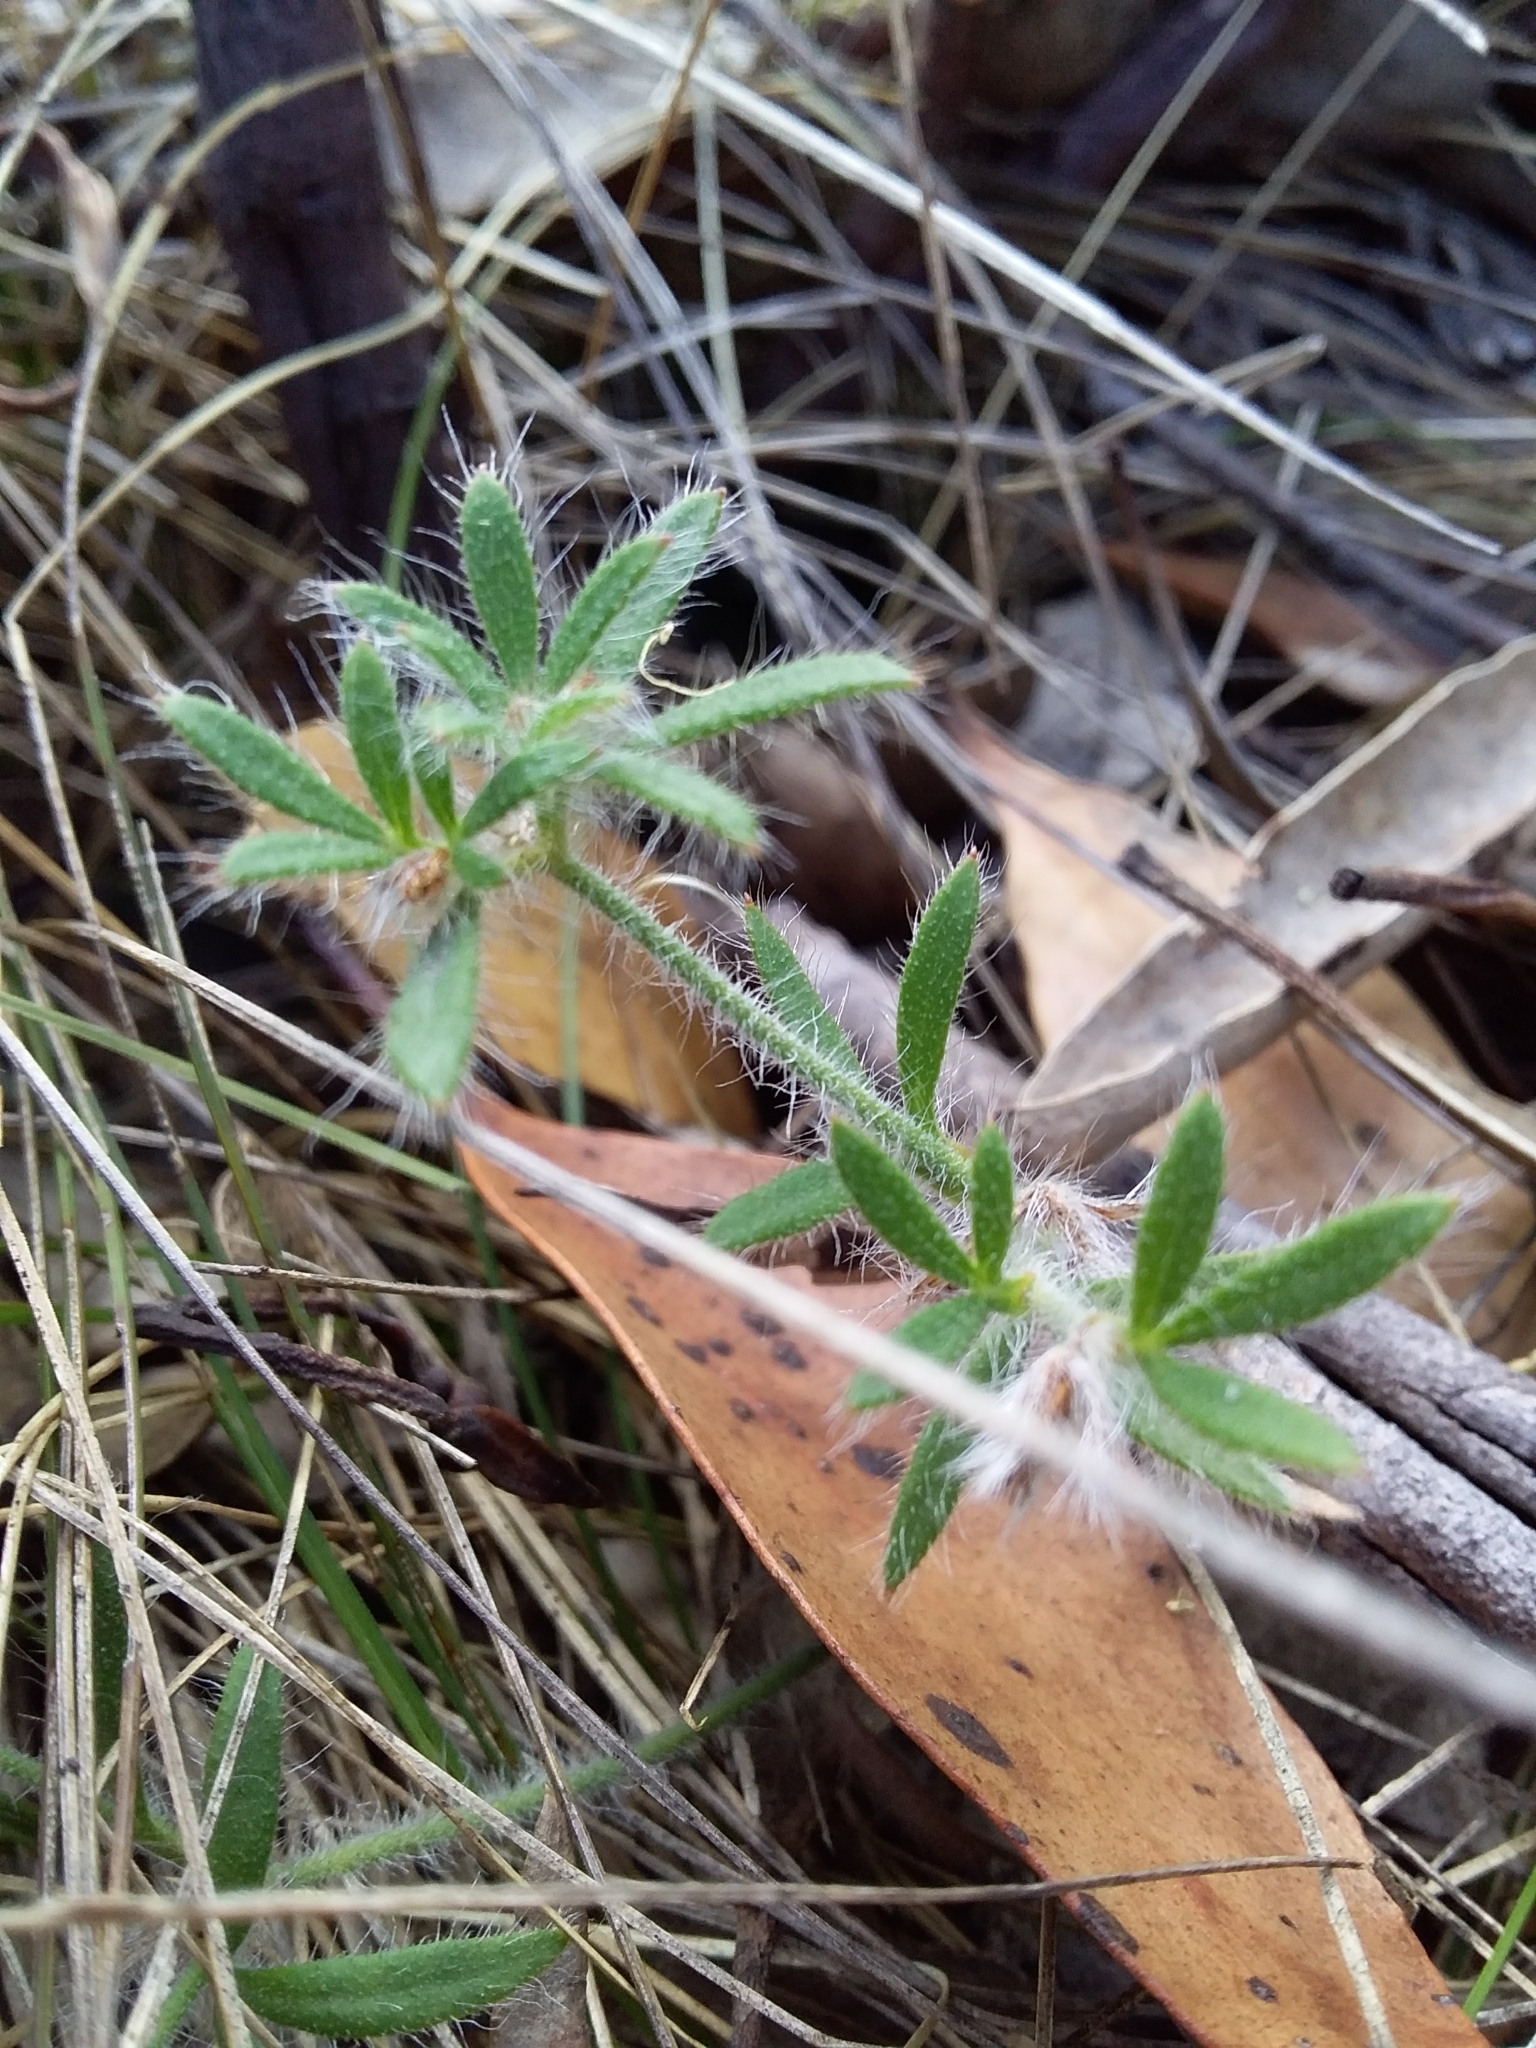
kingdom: Plantae
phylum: Tracheophyta
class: Magnoliopsida
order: Apiales
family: Apiaceae
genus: Xanthosia
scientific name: Xanthosia huegelii
